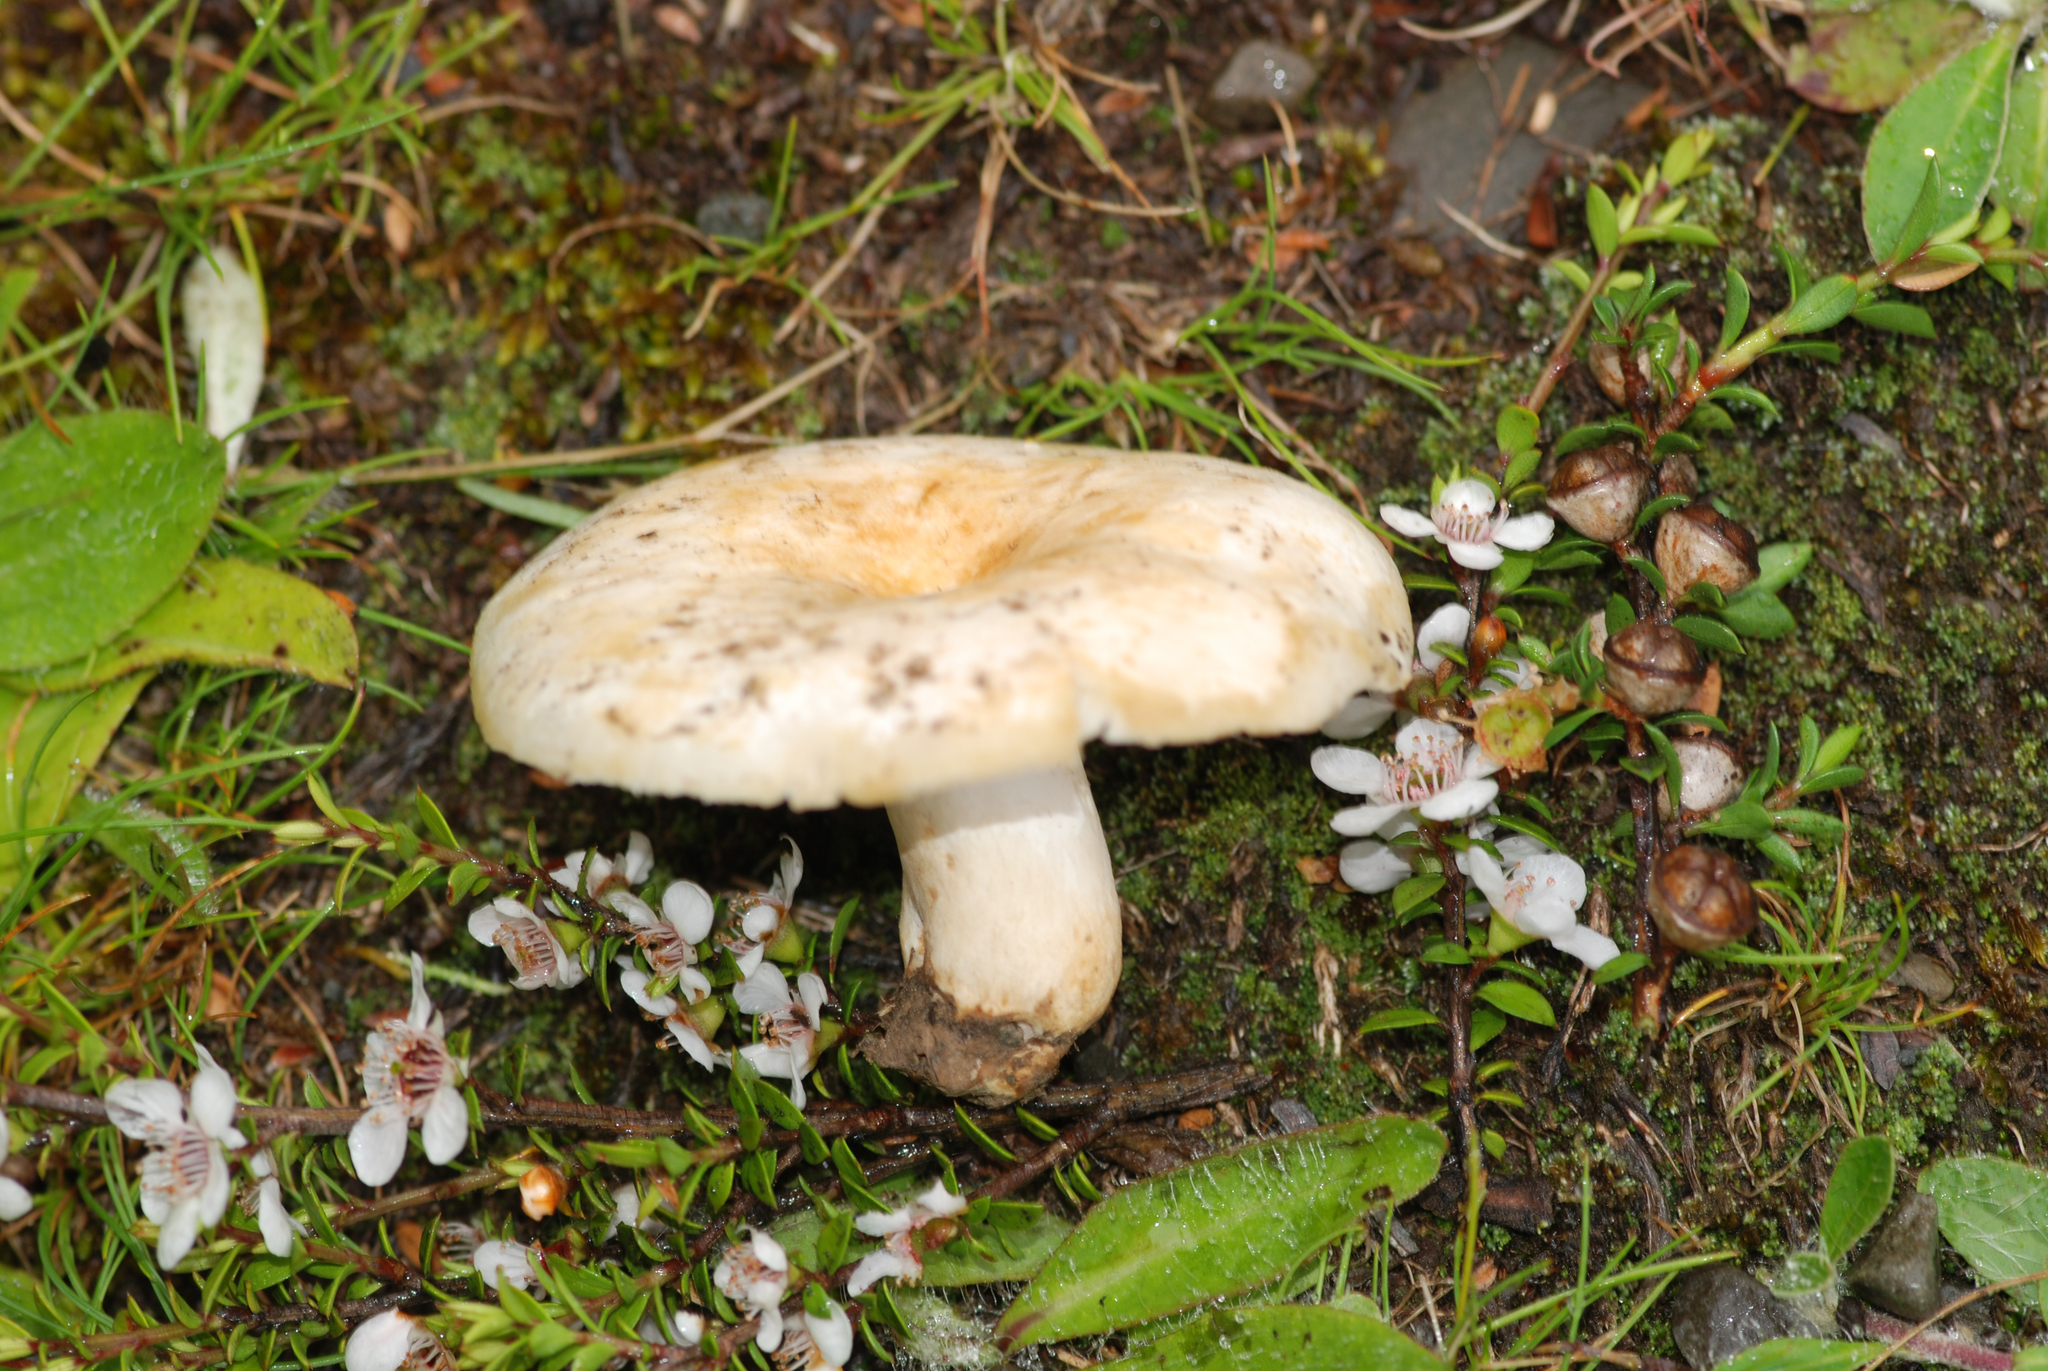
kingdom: Fungi
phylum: Basidiomycota
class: Agaricomycetes
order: Russulales
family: Russulaceae
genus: Russula
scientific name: Russula australis
